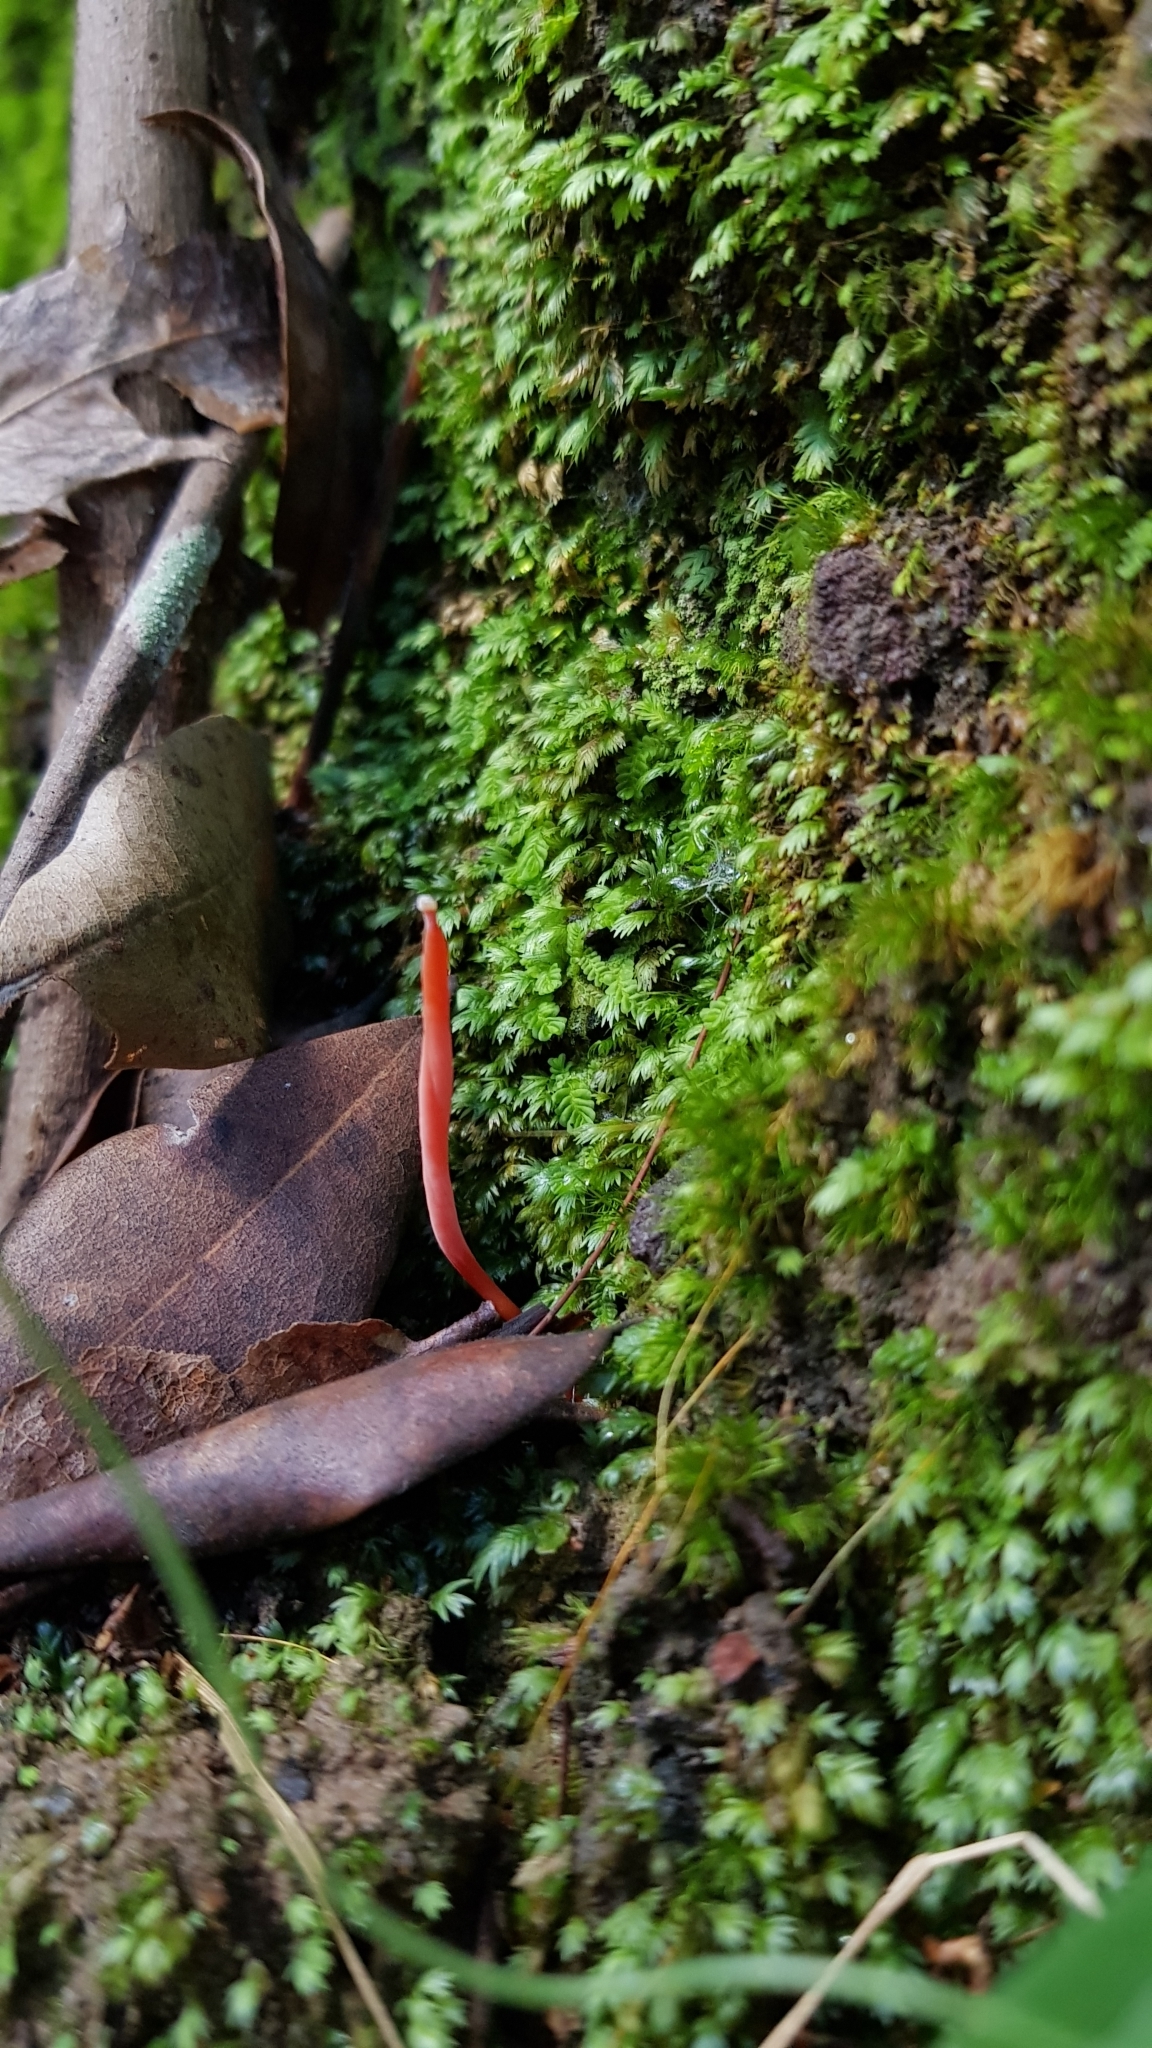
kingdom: Fungi
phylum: Basidiomycota
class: Agaricomycetes
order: Agaricales
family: Clavariaceae
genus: Clavulinopsis
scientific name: Clavulinopsis corallinorosacea
